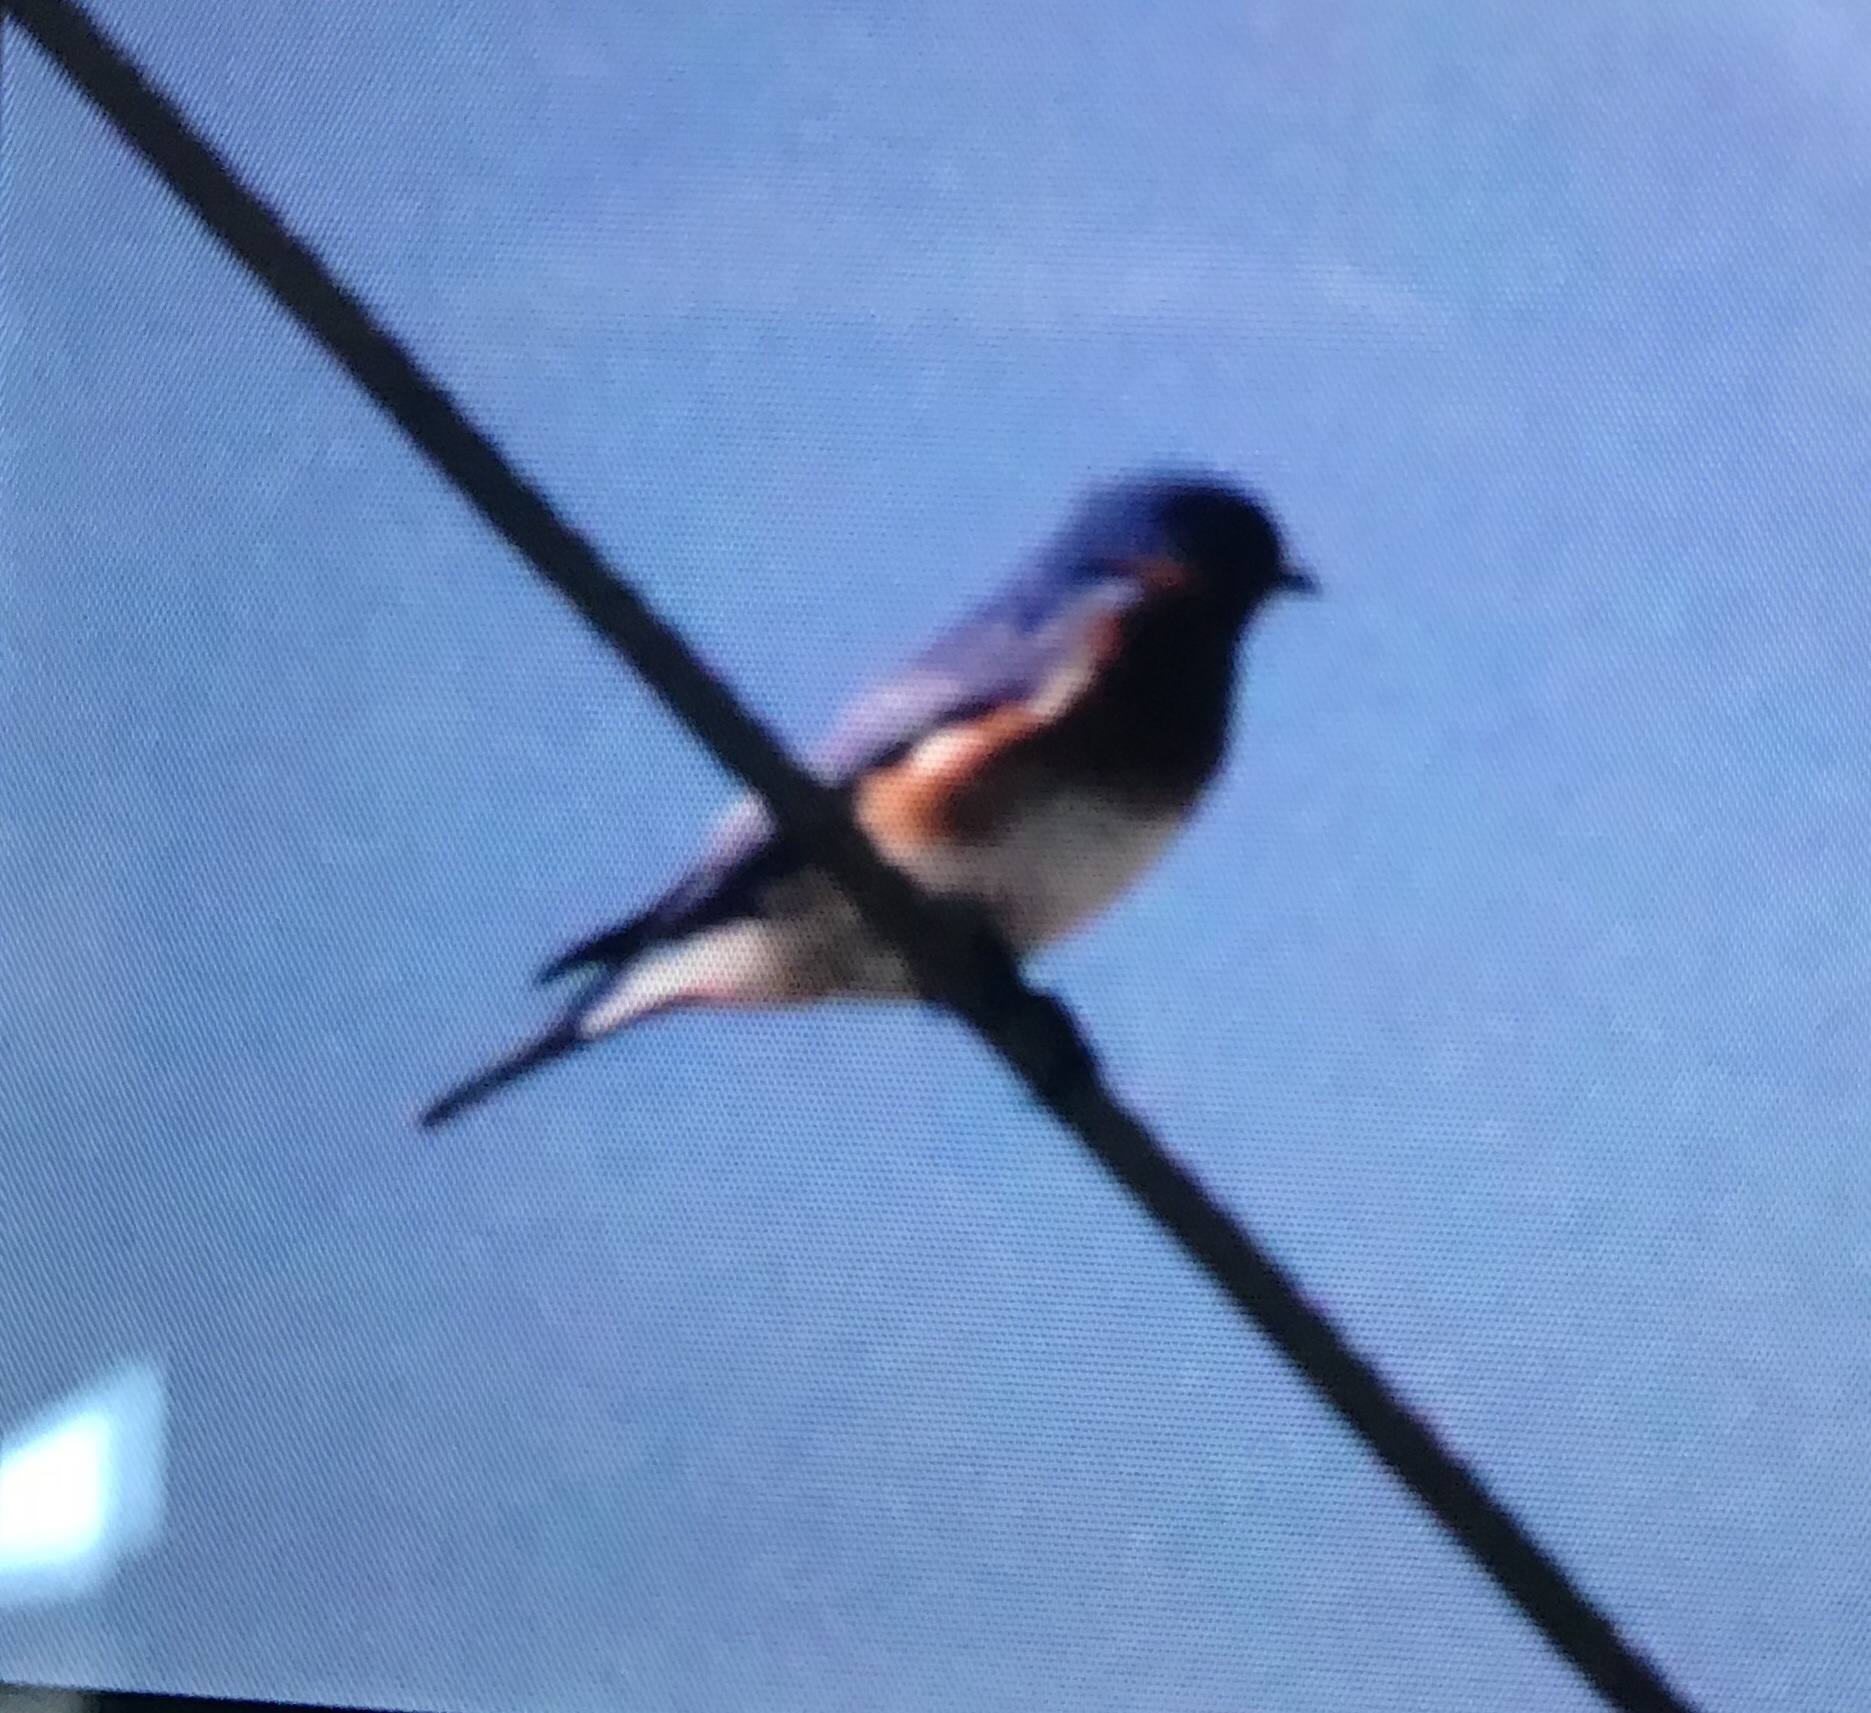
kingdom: Animalia
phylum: Chordata
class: Aves
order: Passeriformes
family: Turdidae
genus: Sialia
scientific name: Sialia sialis
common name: Eastern bluebird
